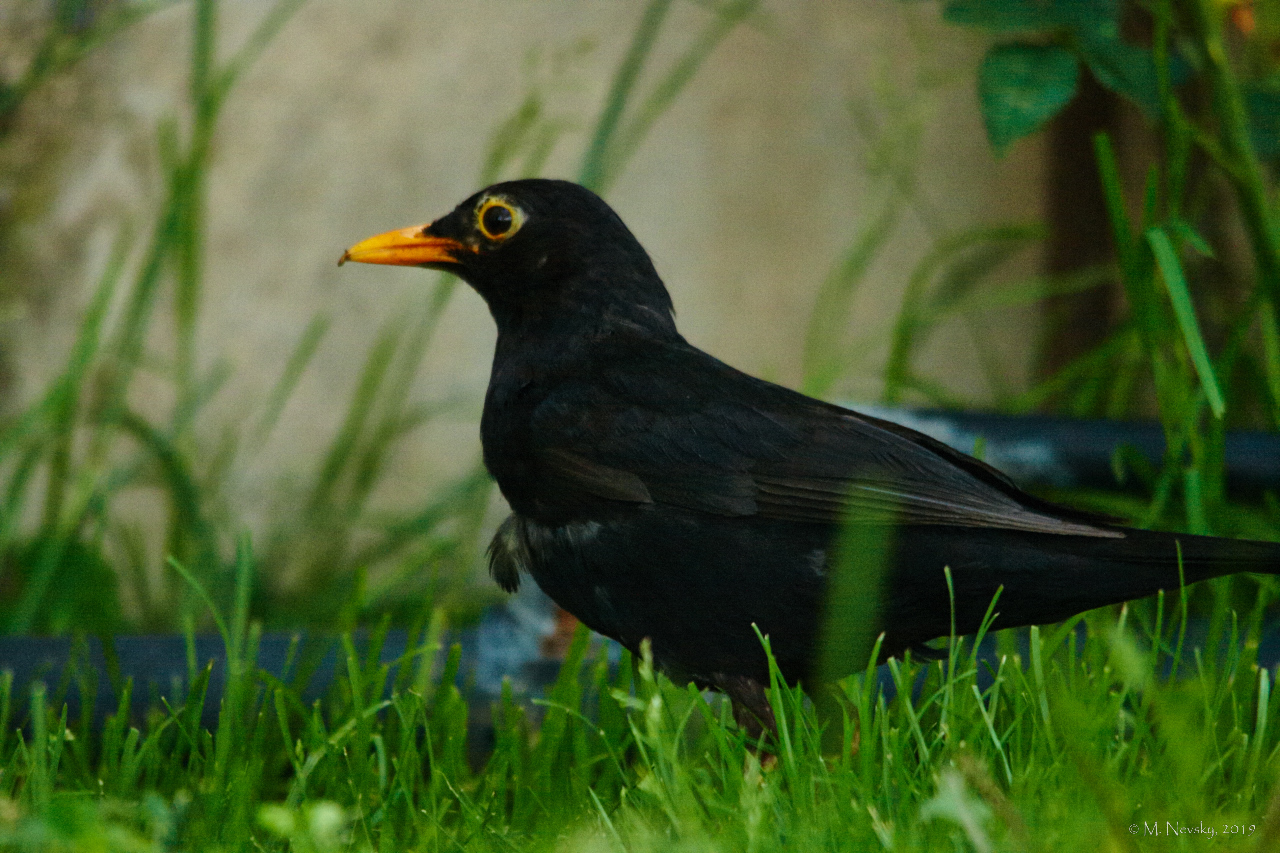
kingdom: Animalia
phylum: Chordata
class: Aves
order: Passeriformes
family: Turdidae
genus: Turdus
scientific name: Turdus merula
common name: Common blackbird
